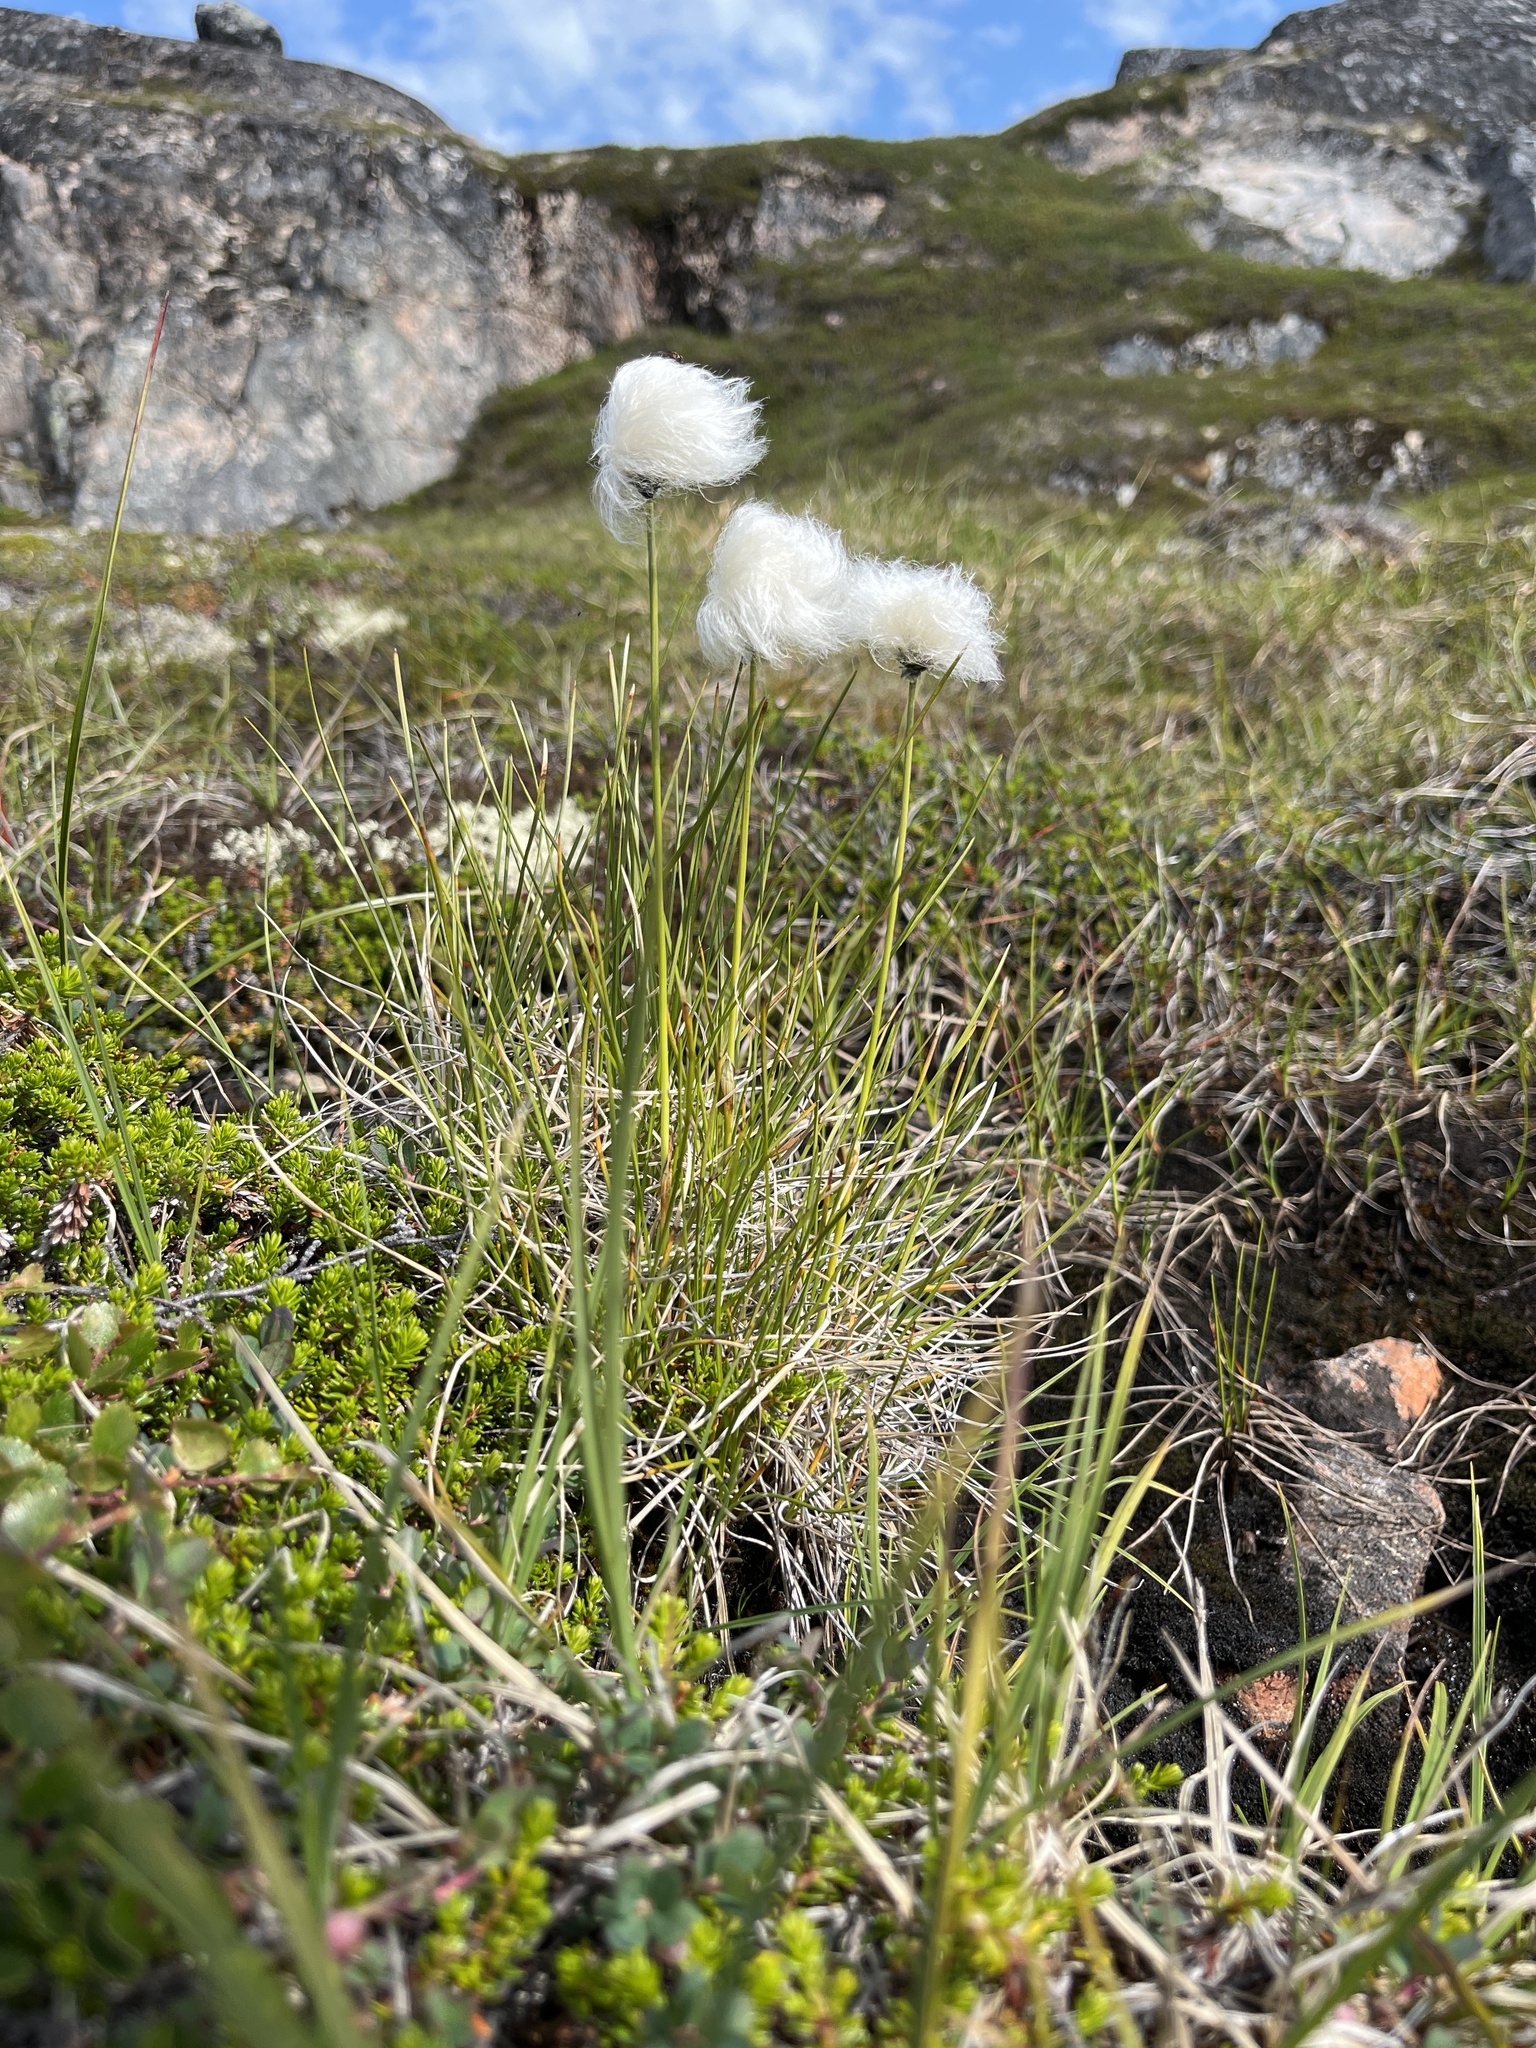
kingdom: Plantae
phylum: Tracheophyta
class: Liliopsida
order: Poales
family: Cyperaceae
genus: Eriophorum
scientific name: Eriophorum vaginatum
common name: Hare's-tail cottongrass
